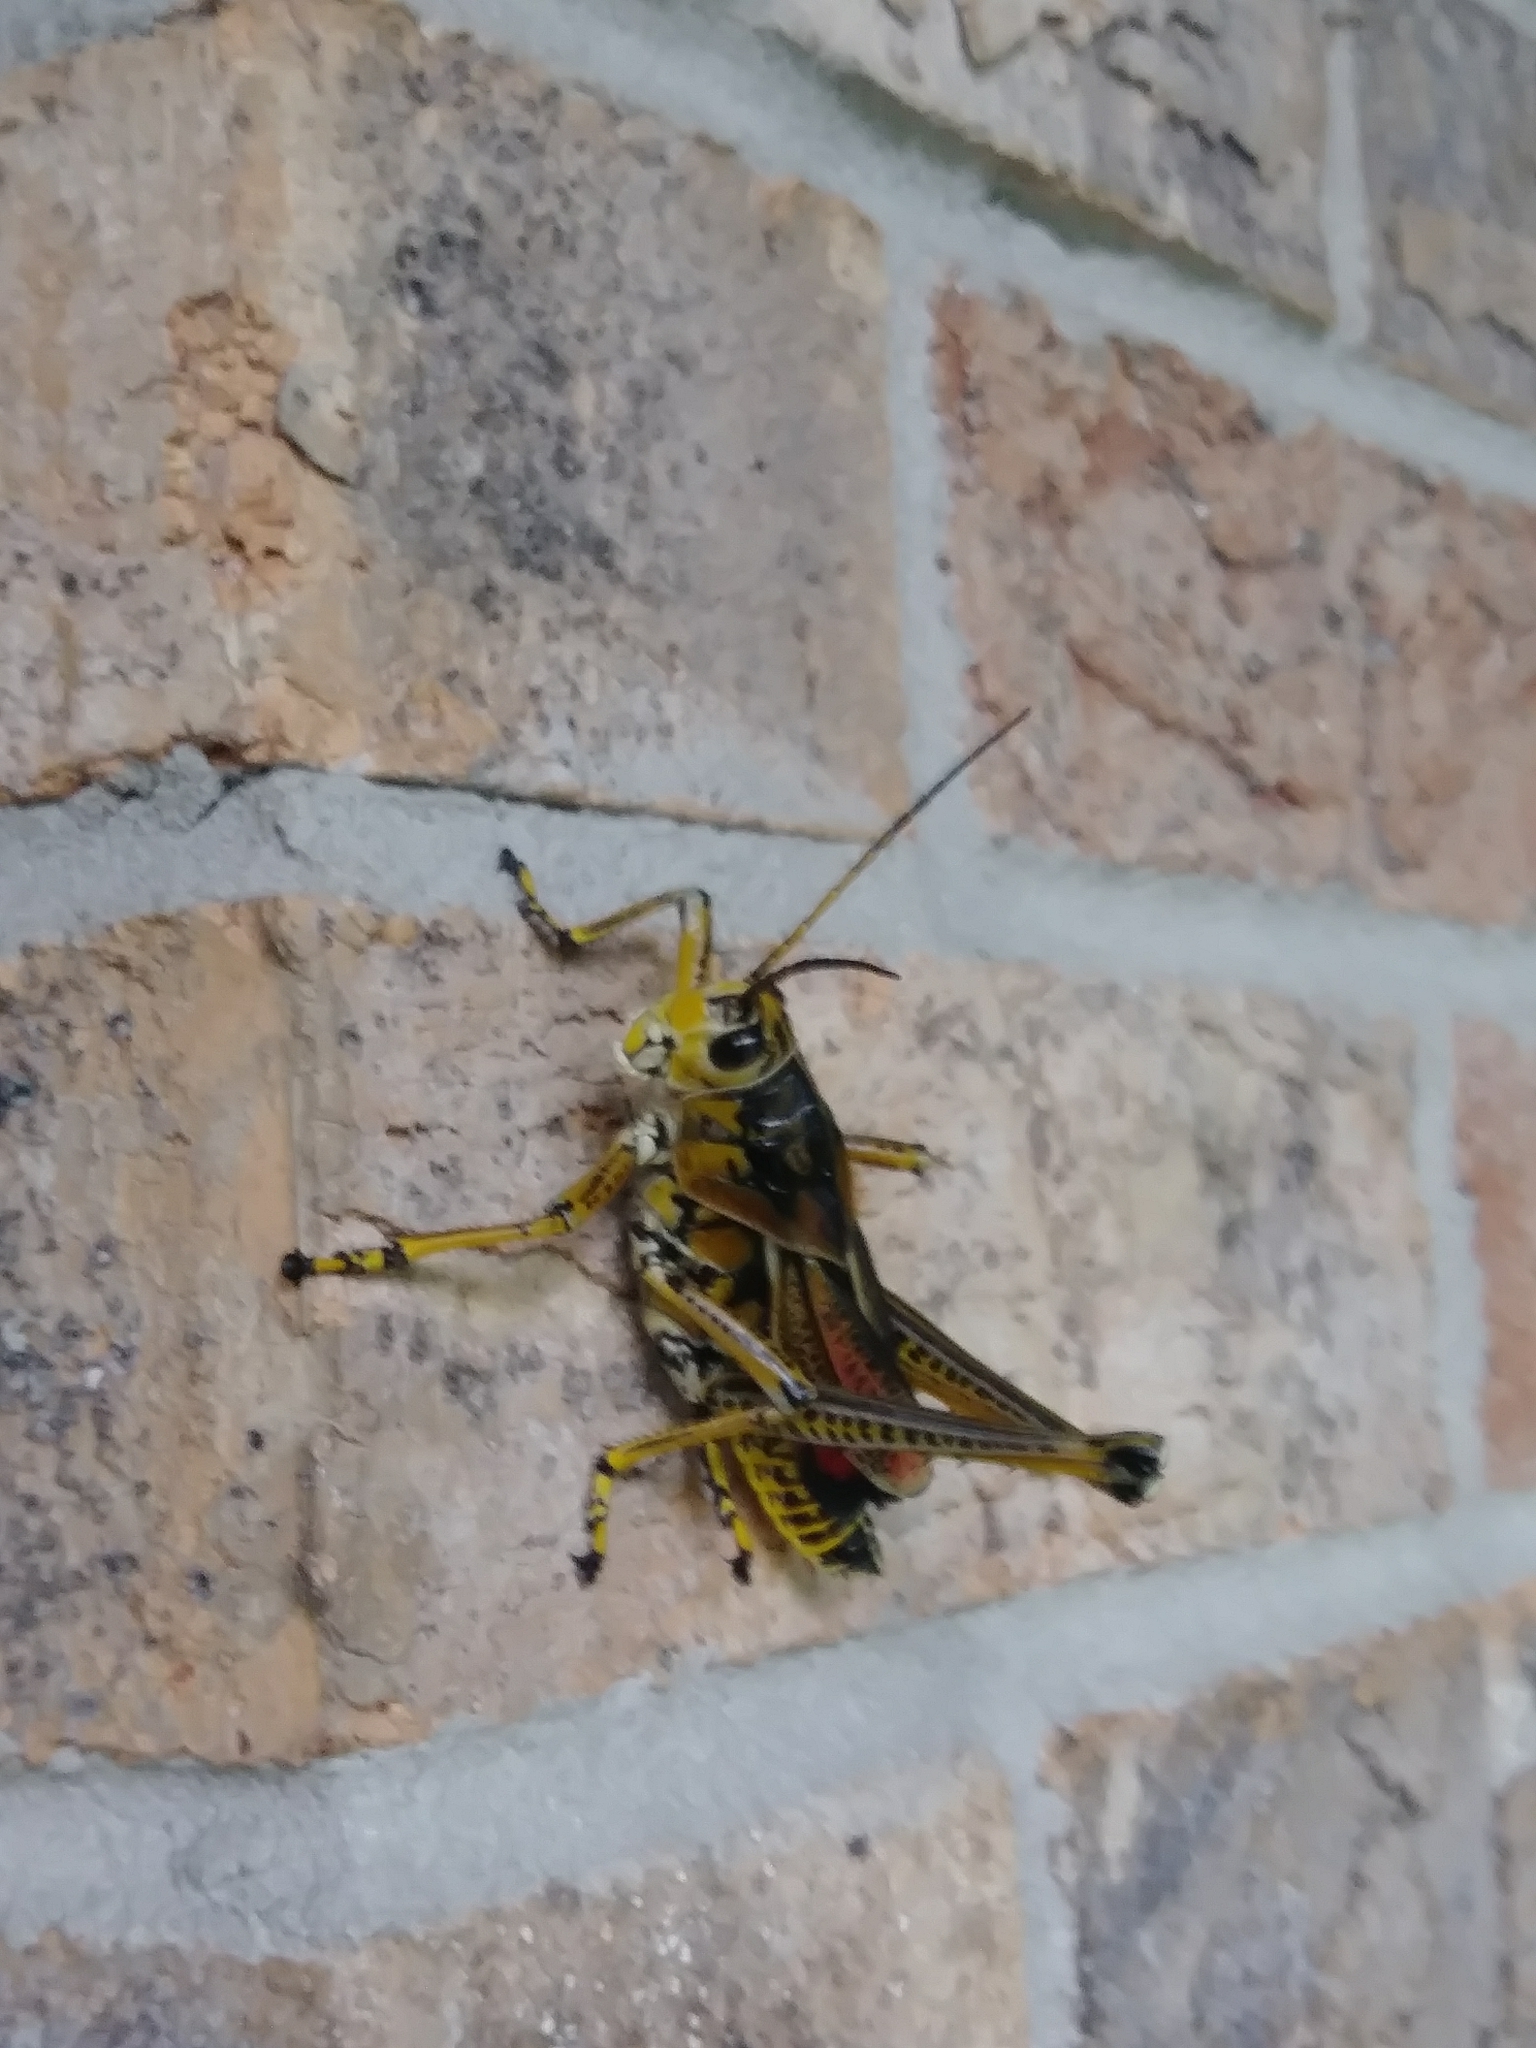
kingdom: Animalia
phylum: Arthropoda
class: Insecta
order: Orthoptera
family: Romaleidae
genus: Romalea
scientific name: Romalea microptera
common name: Eastern lubber grasshopper
